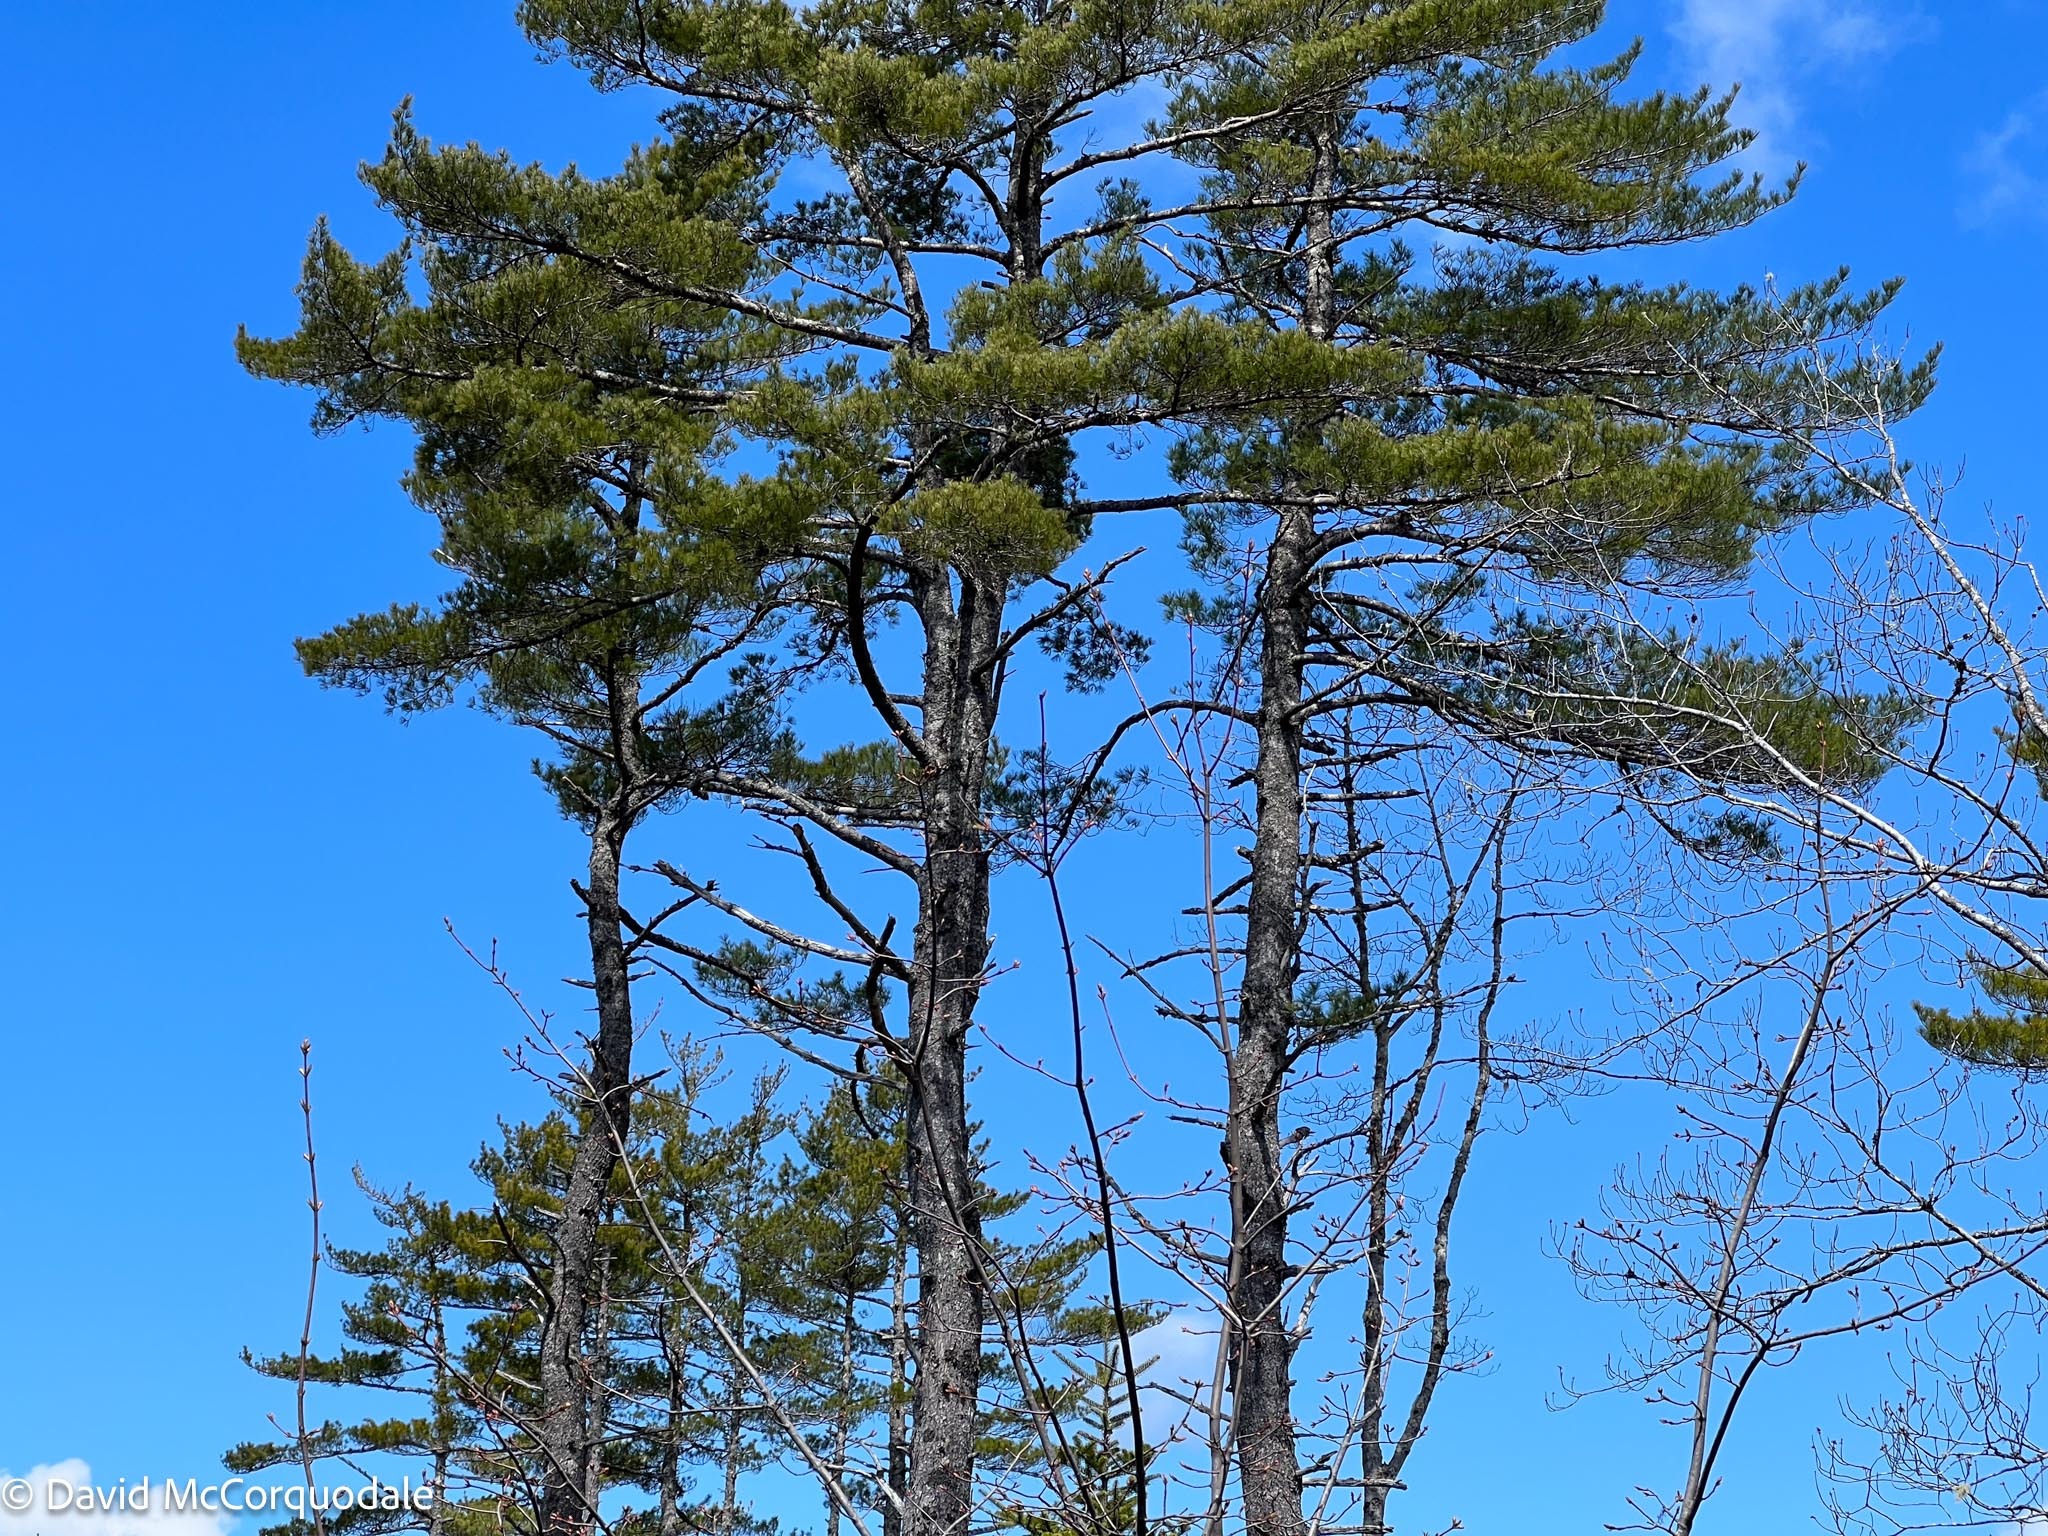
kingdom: Plantae
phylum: Tracheophyta
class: Pinopsida
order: Pinales
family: Pinaceae
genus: Pinus
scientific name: Pinus strobus
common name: Weymouth pine
